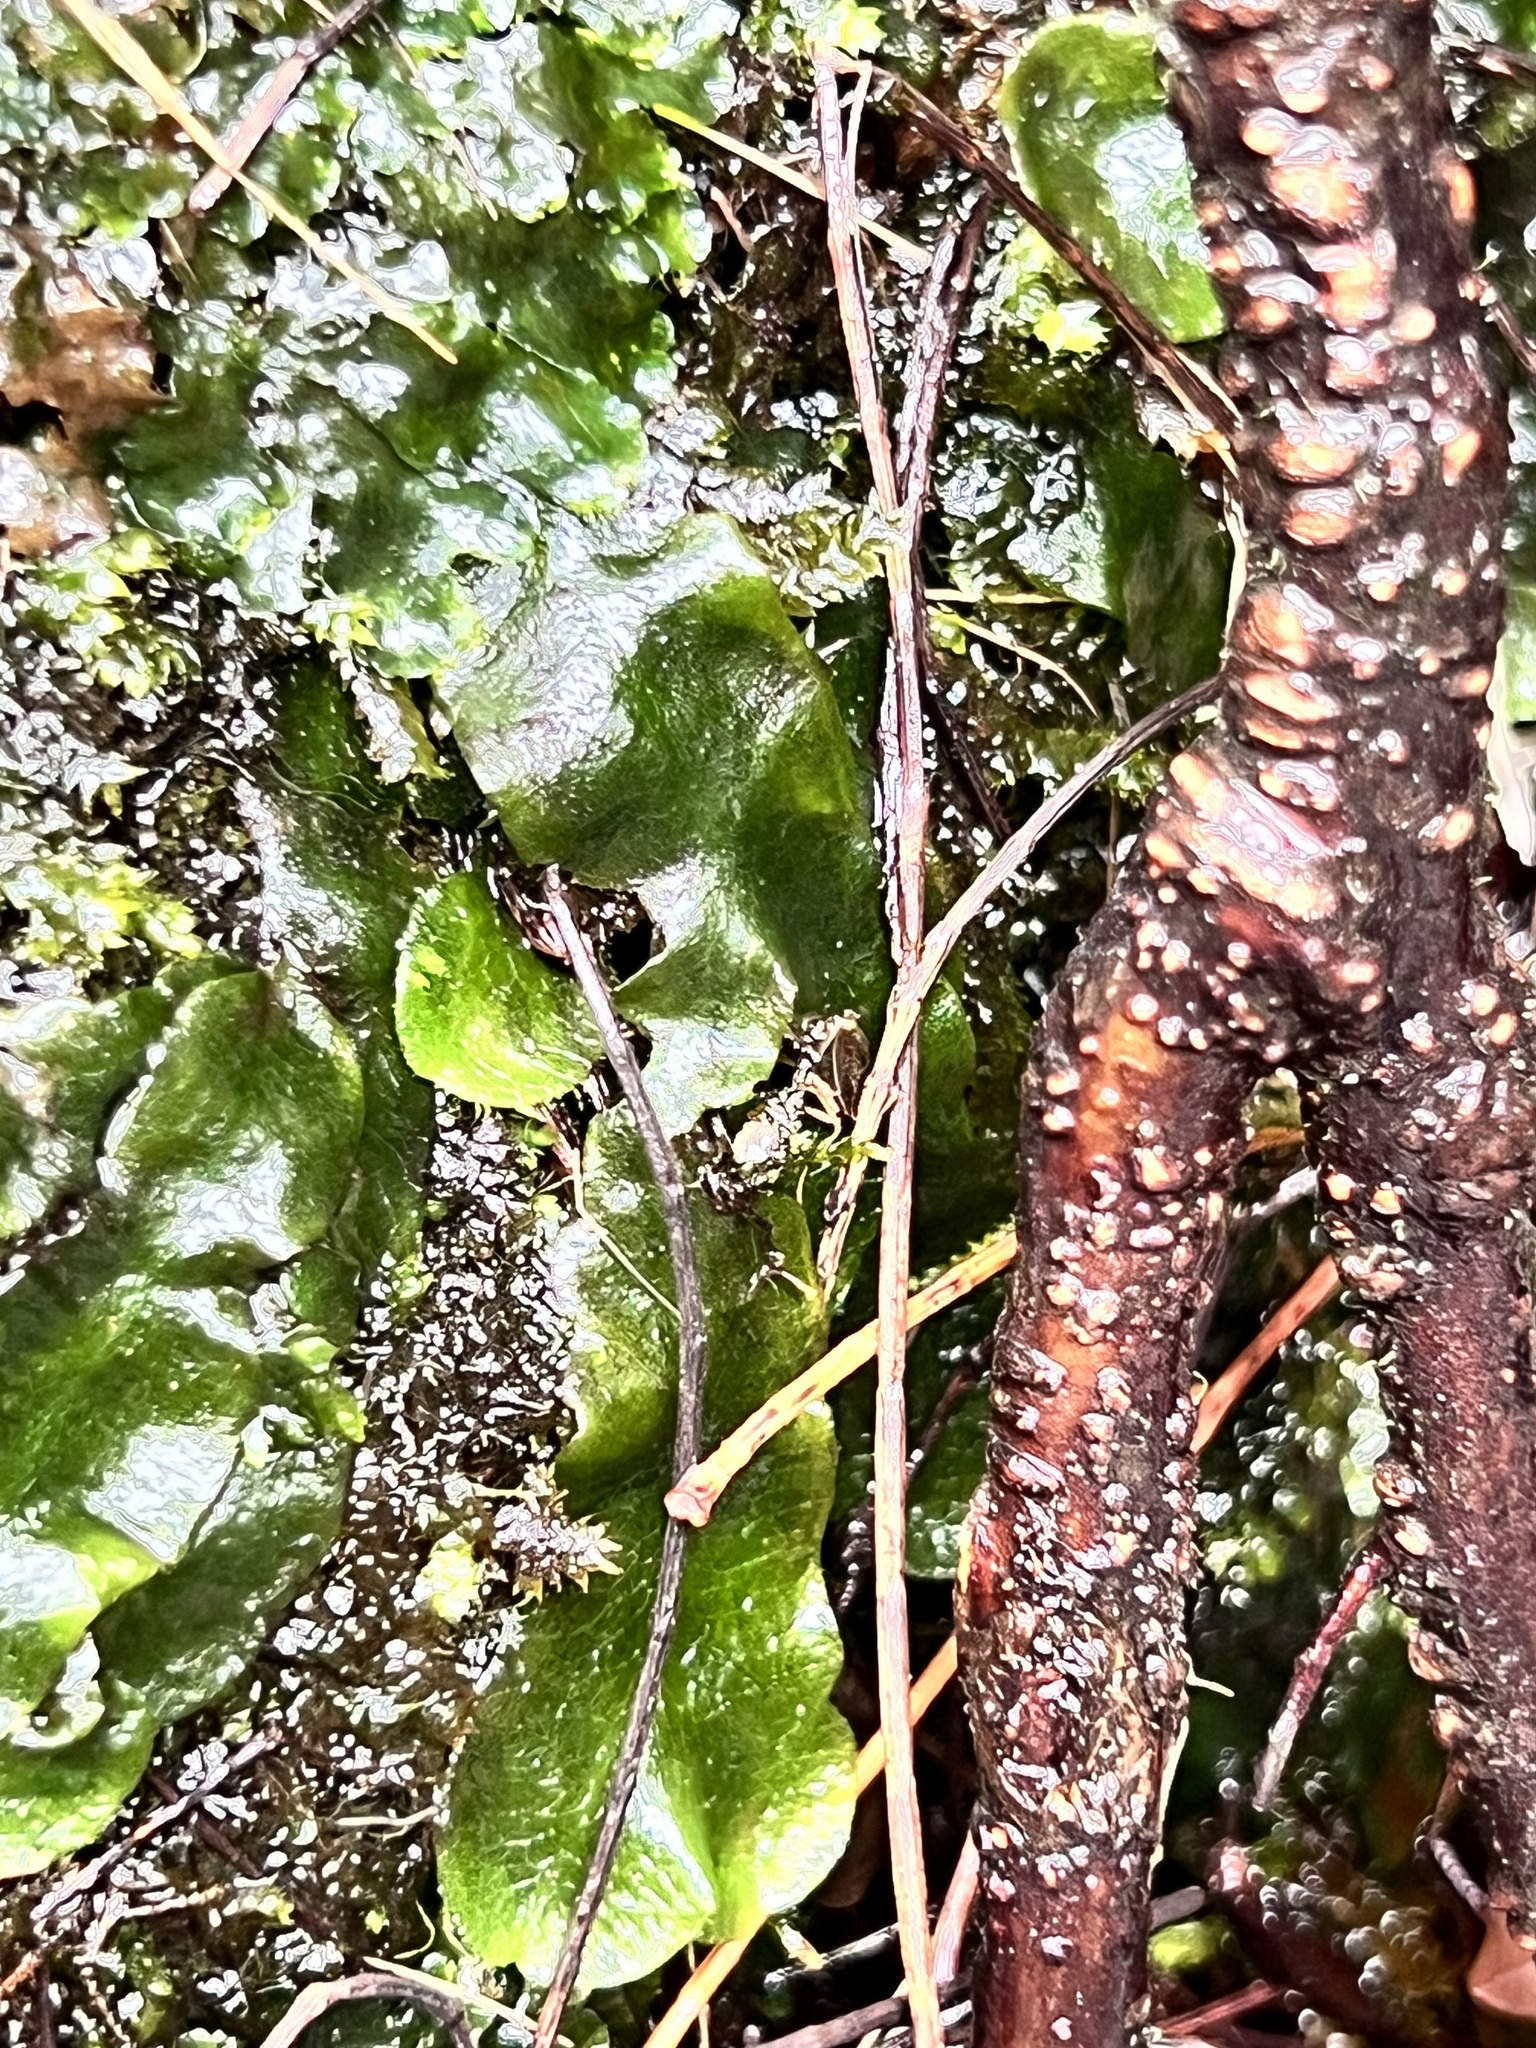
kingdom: Plantae
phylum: Marchantiophyta
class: Marchantiopsida
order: Marchantiales
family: Dumortieraceae
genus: Dumortiera
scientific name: Dumortiera hirsuta
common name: Dumortier's liverwort
